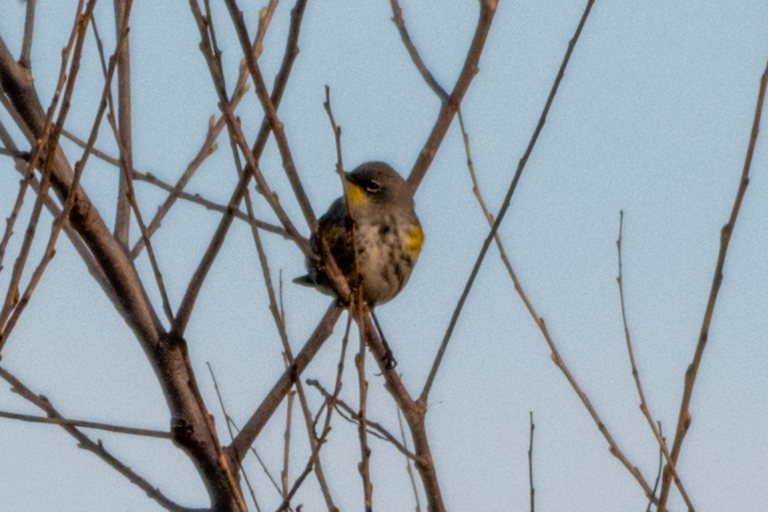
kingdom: Animalia
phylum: Chordata
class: Aves
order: Passeriformes
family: Parulidae
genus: Setophaga
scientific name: Setophaga auduboni
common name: Audubon's warbler
